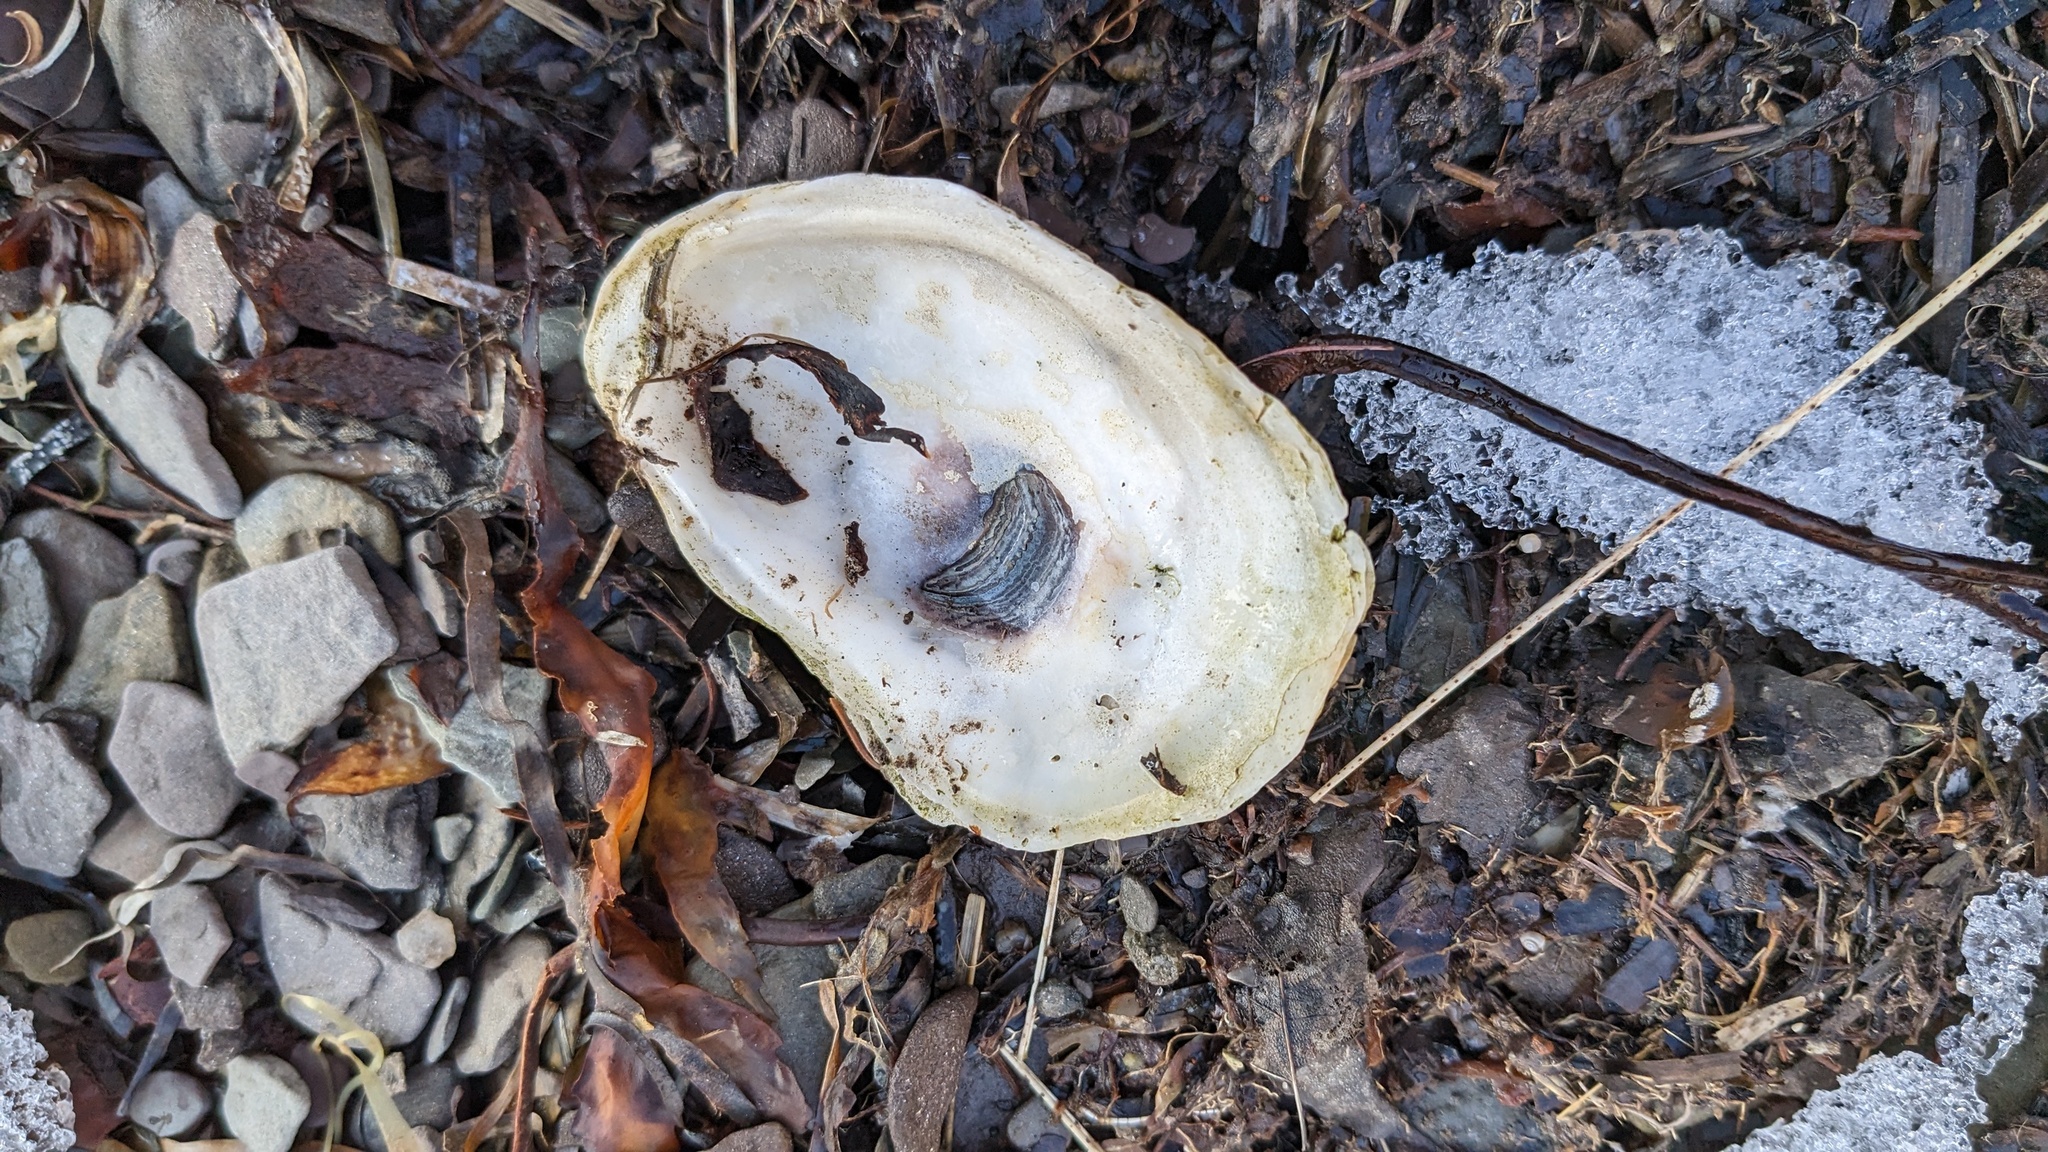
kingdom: Animalia
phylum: Mollusca
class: Bivalvia
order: Ostreida
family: Ostreidae
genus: Crassostrea
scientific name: Crassostrea virginica
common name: American oyster
